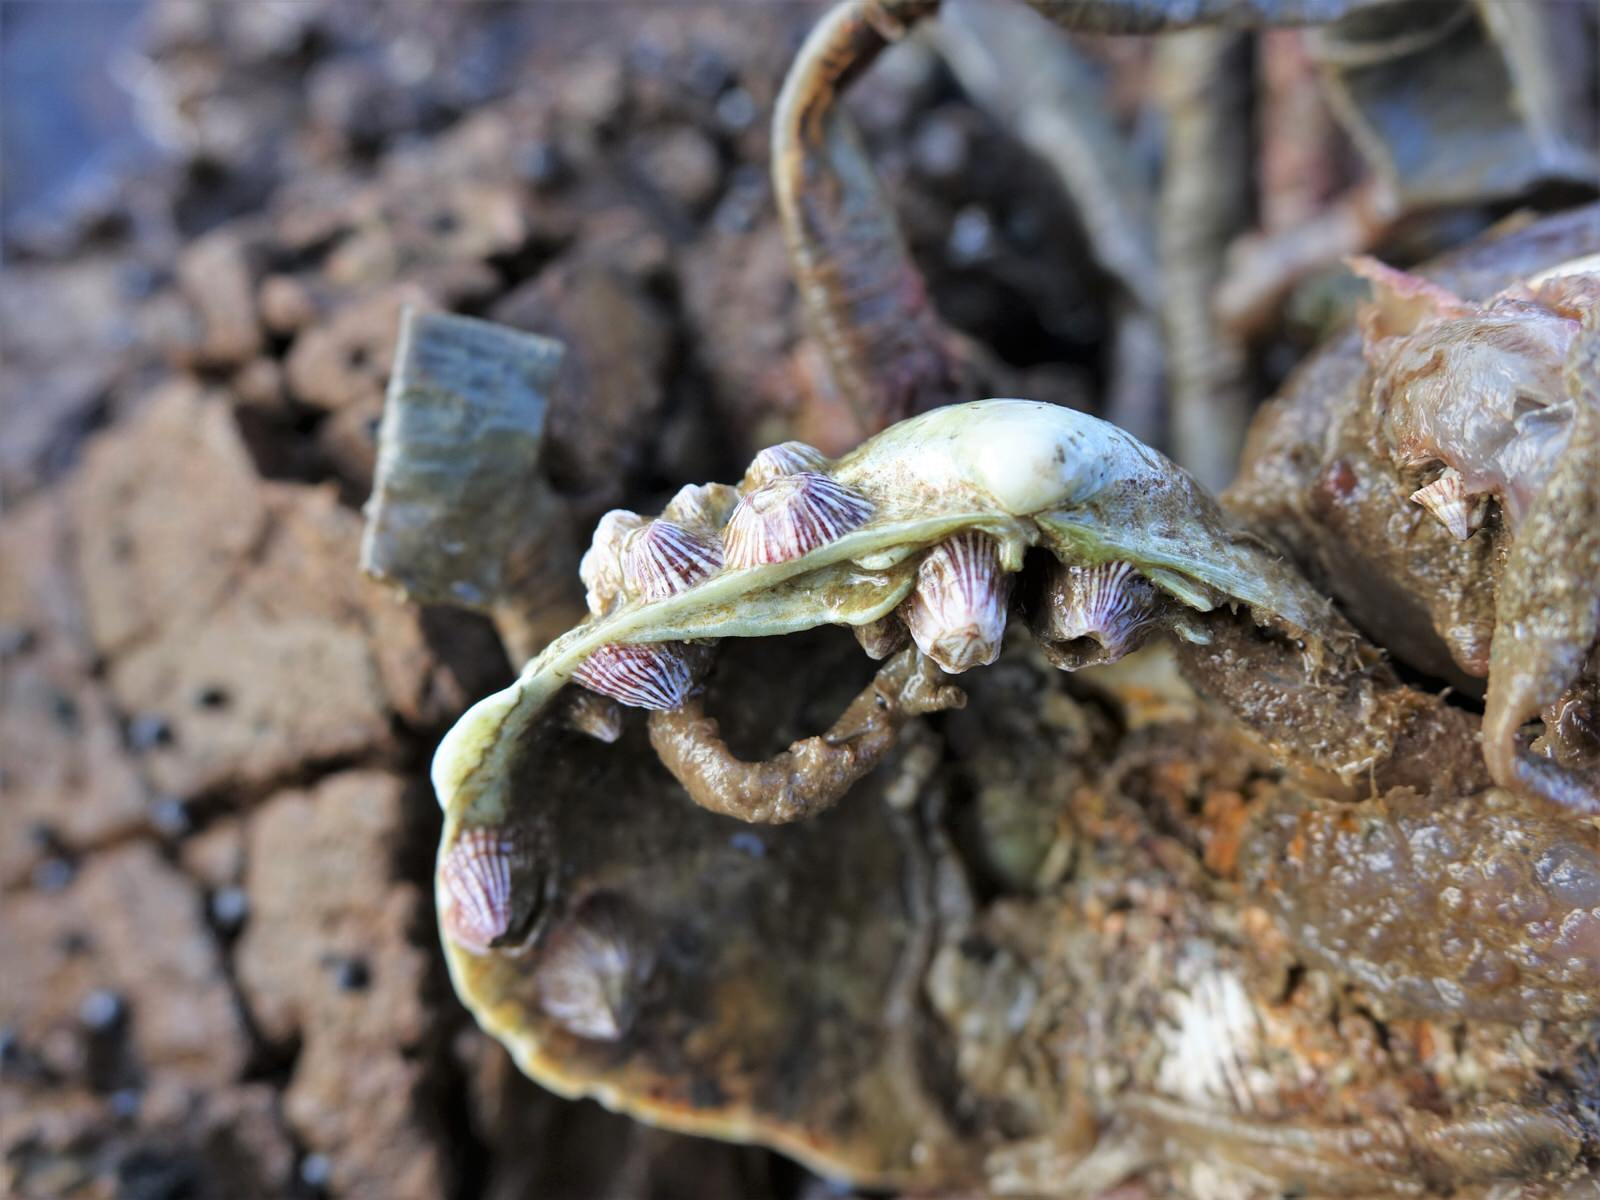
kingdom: Animalia
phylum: Annelida
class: Polychaeta
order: Sabellida
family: Sabellidae
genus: Sabella
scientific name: Sabella spallanzanii
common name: Feather duster worm
